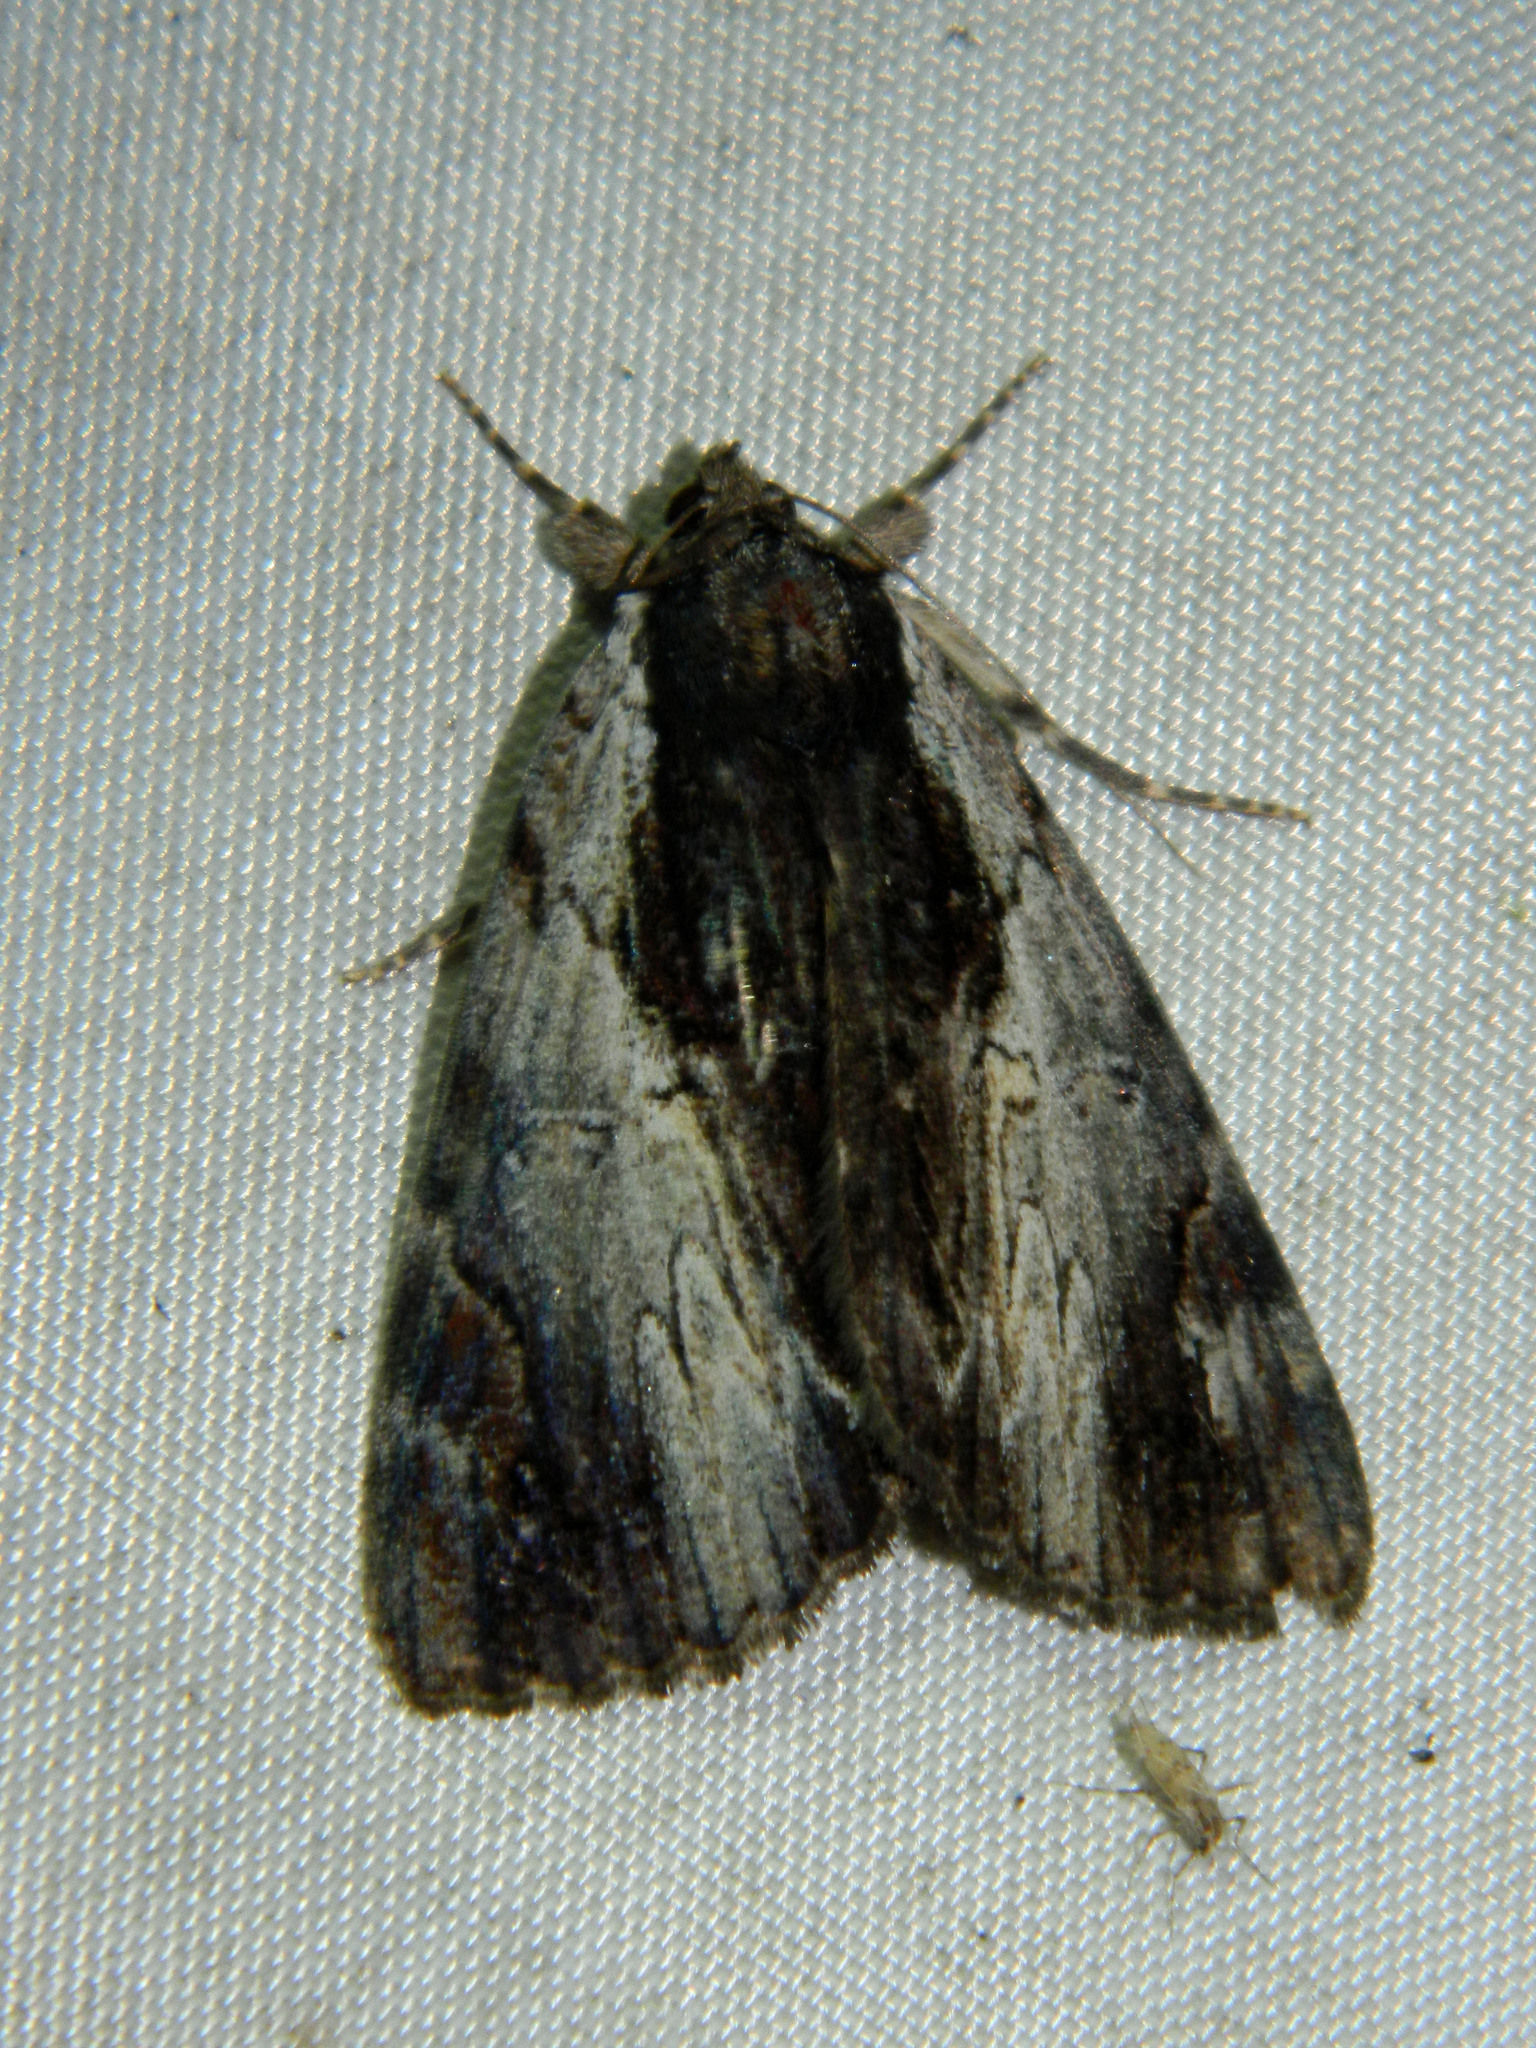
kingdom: Animalia
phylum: Arthropoda
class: Insecta
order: Lepidoptera
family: Erebidae
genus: Catocala
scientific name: Catocala ultronia
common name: Ultronia underwing
